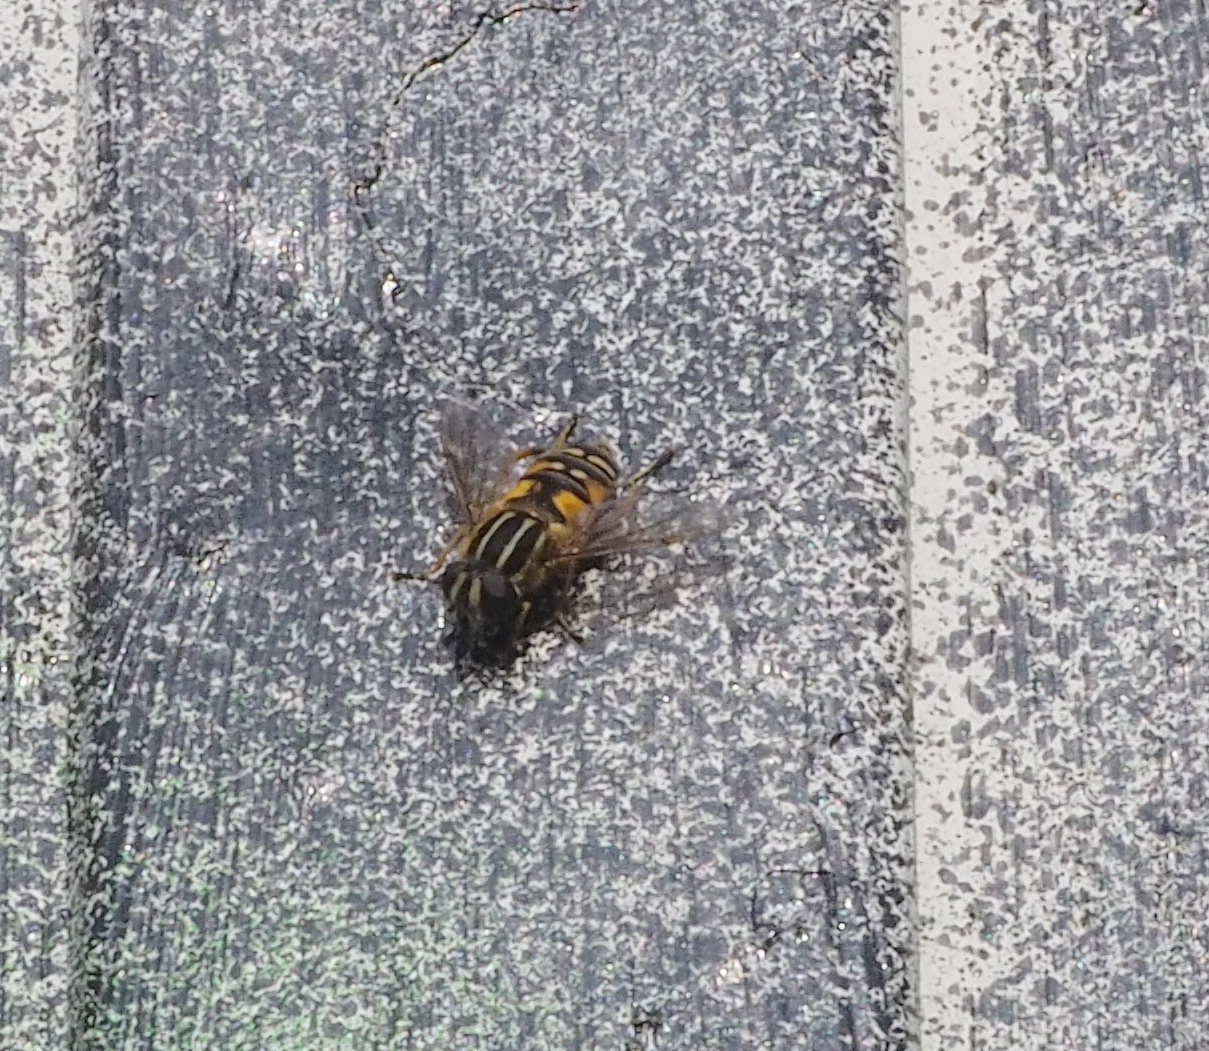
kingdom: Animalia
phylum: Arthropoda
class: Insecta
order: Diptera
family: Syrphidae
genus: Helophilus
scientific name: Helophilus pendulus
